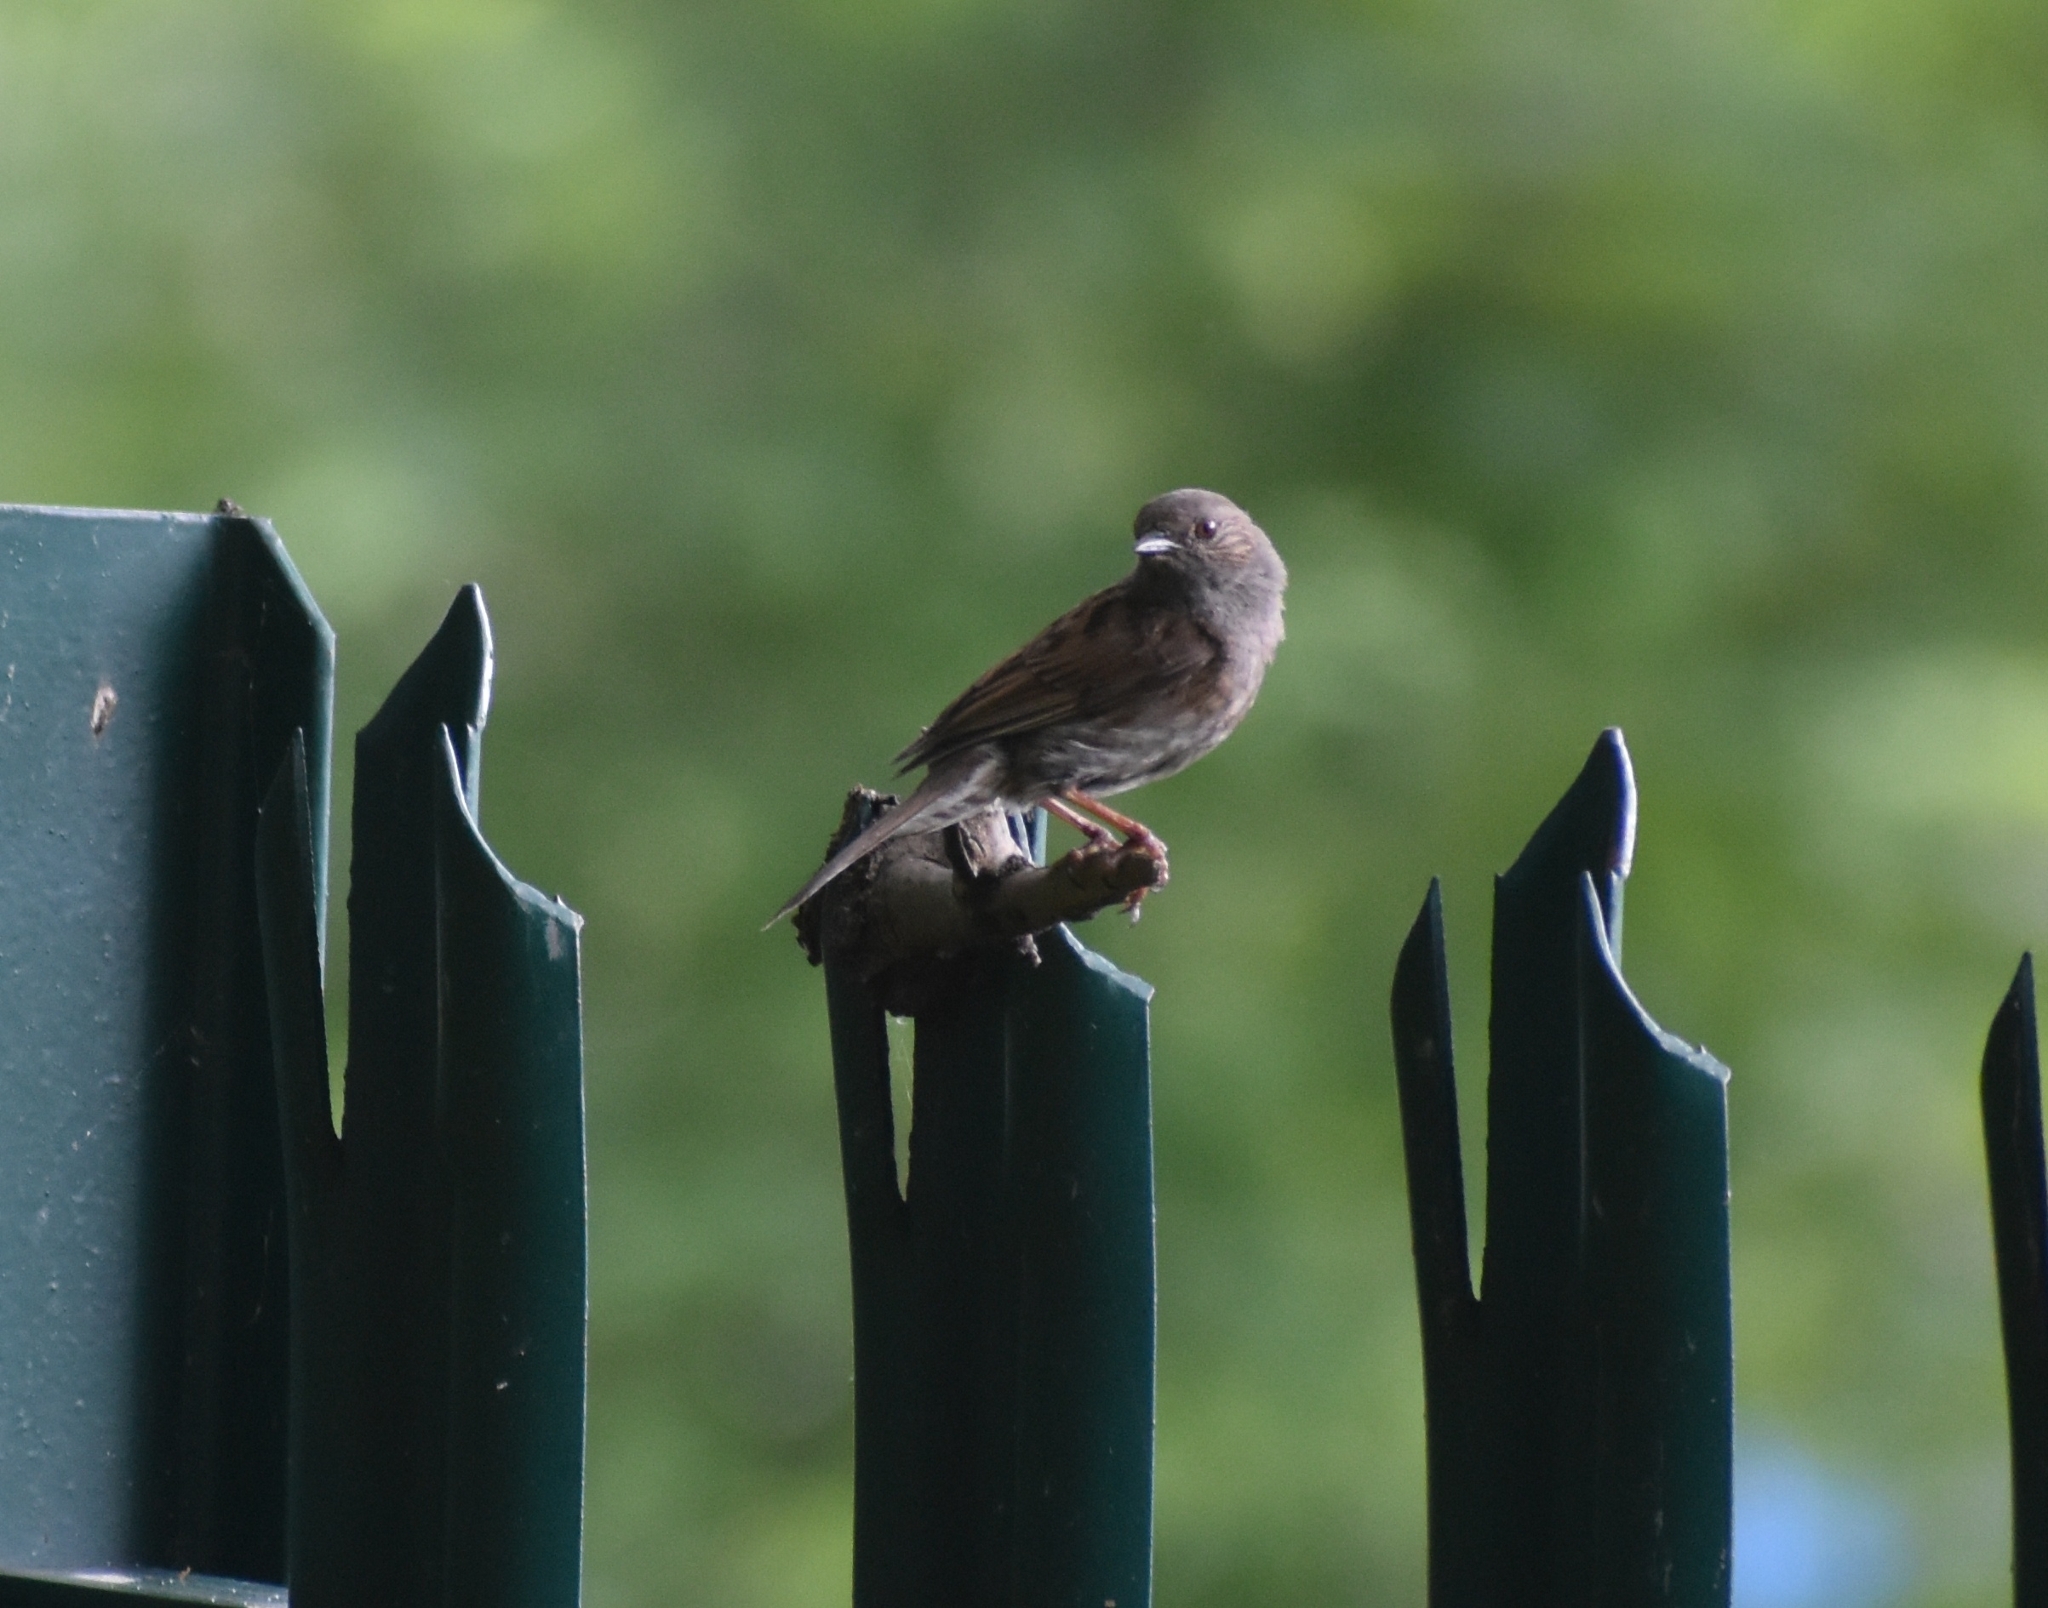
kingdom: Animalia
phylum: Chordata
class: Aves
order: Passeriformes
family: Prunellidae
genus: Prunella
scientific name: Prunella modularis
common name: Dunnock
